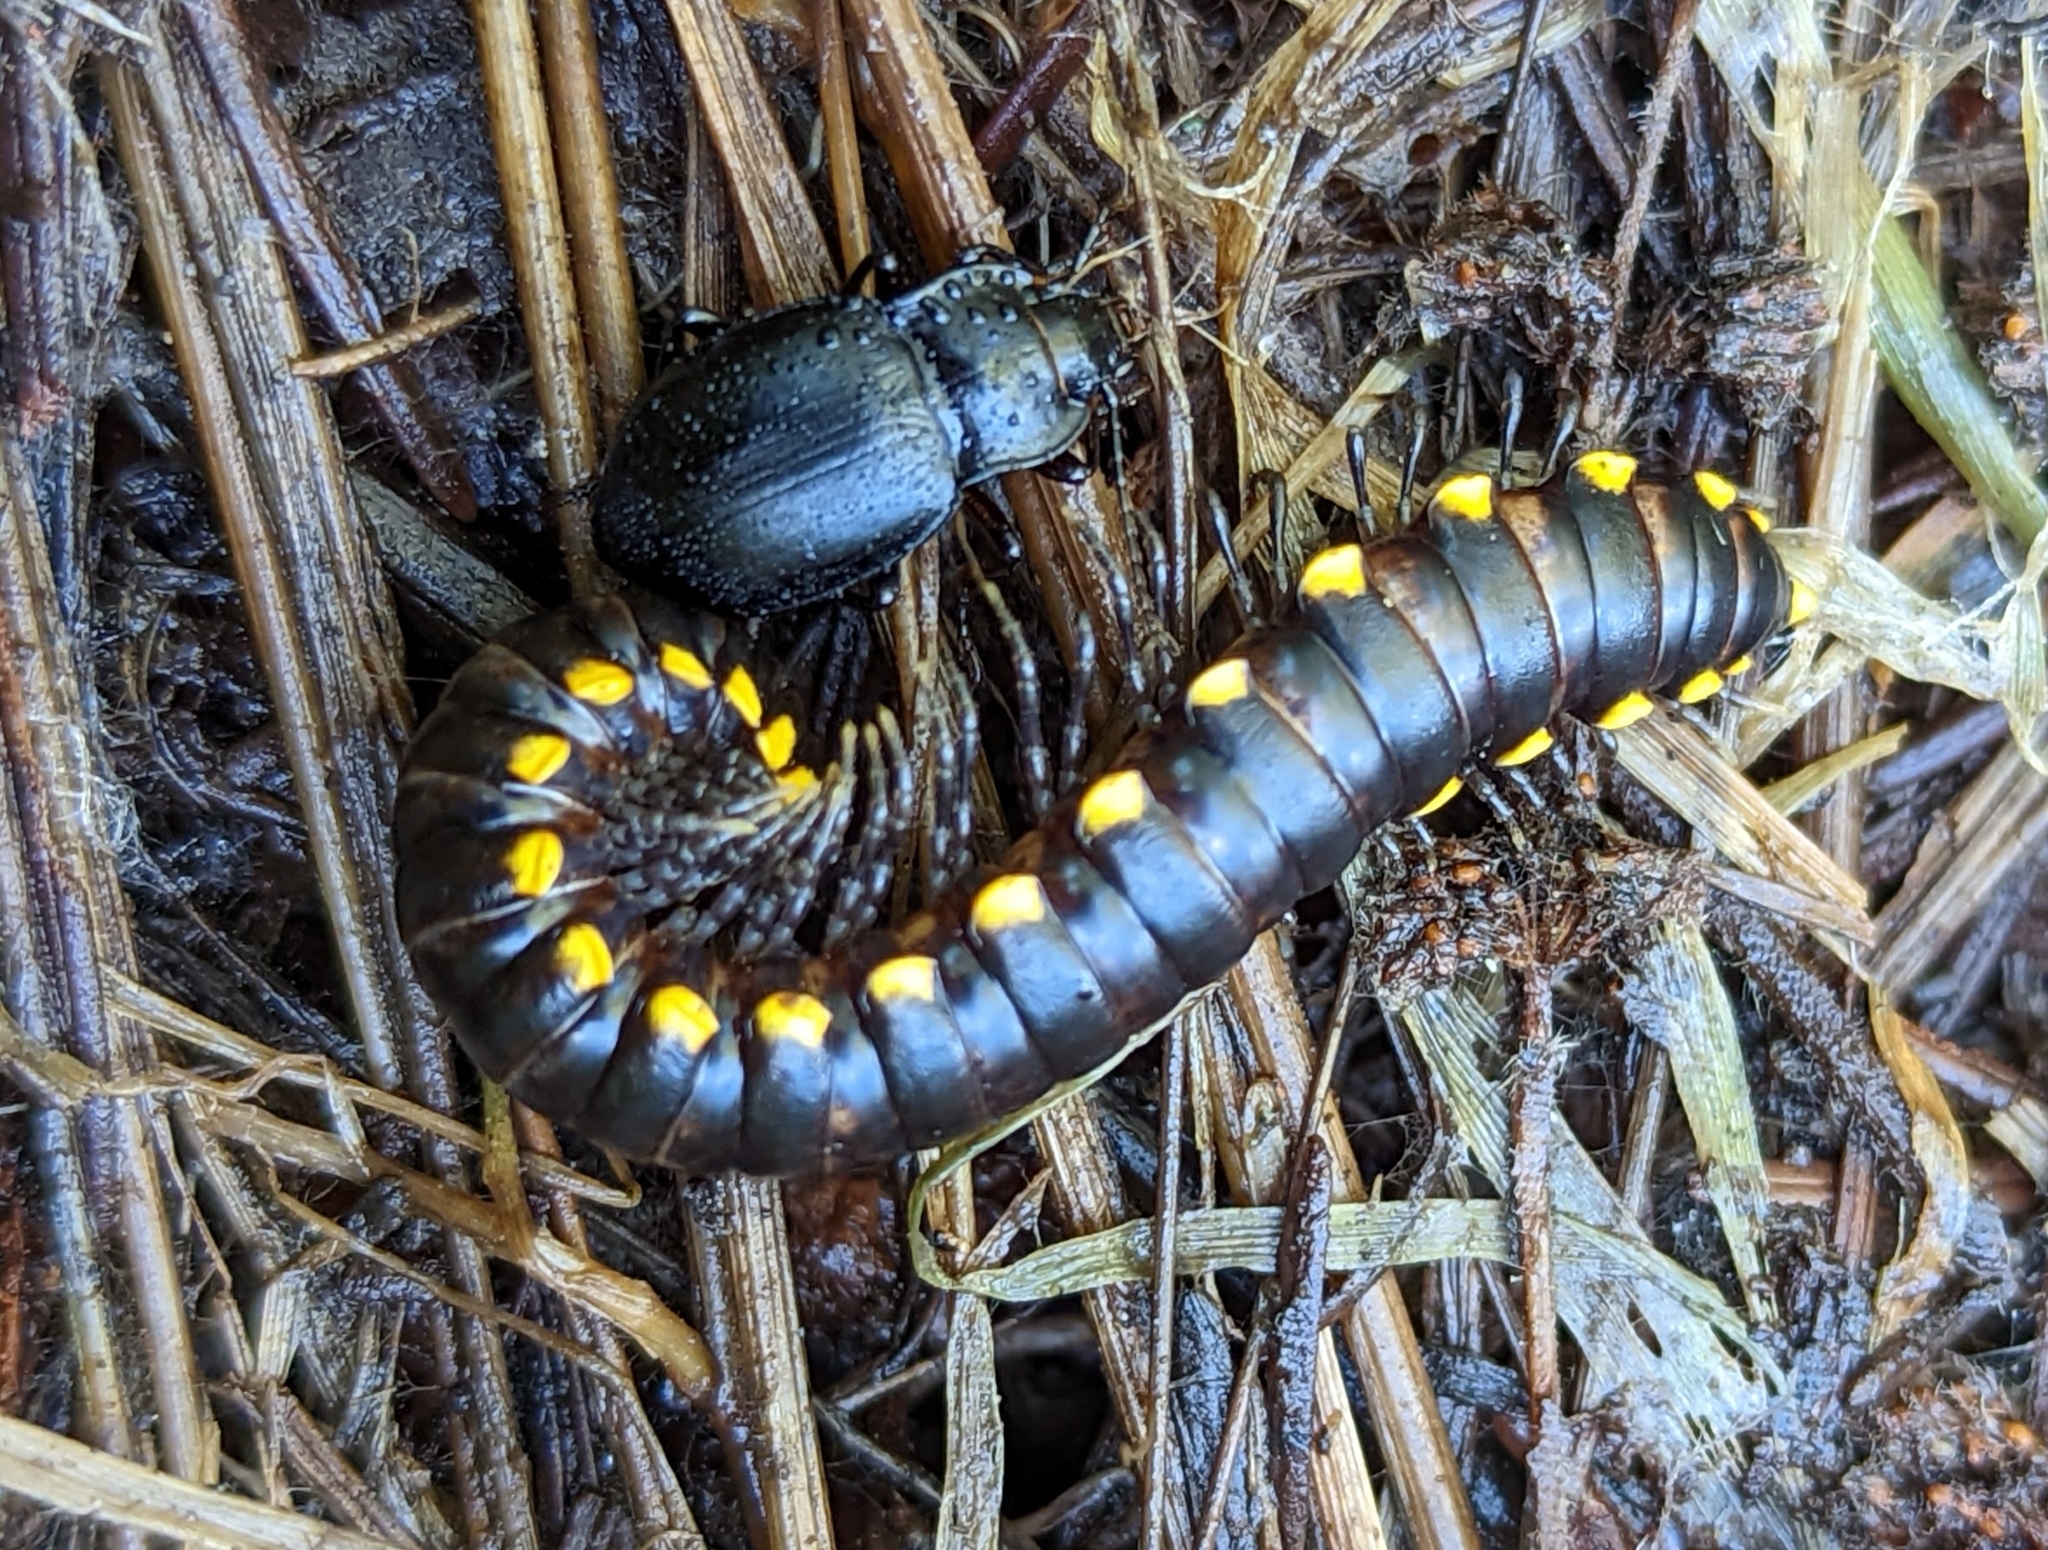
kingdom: Animalia
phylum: Arthropoda
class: Diplopoda
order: Polydesmida
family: Xystodesmidae
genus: Harpaphe
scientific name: Harpaphe haydeniana
